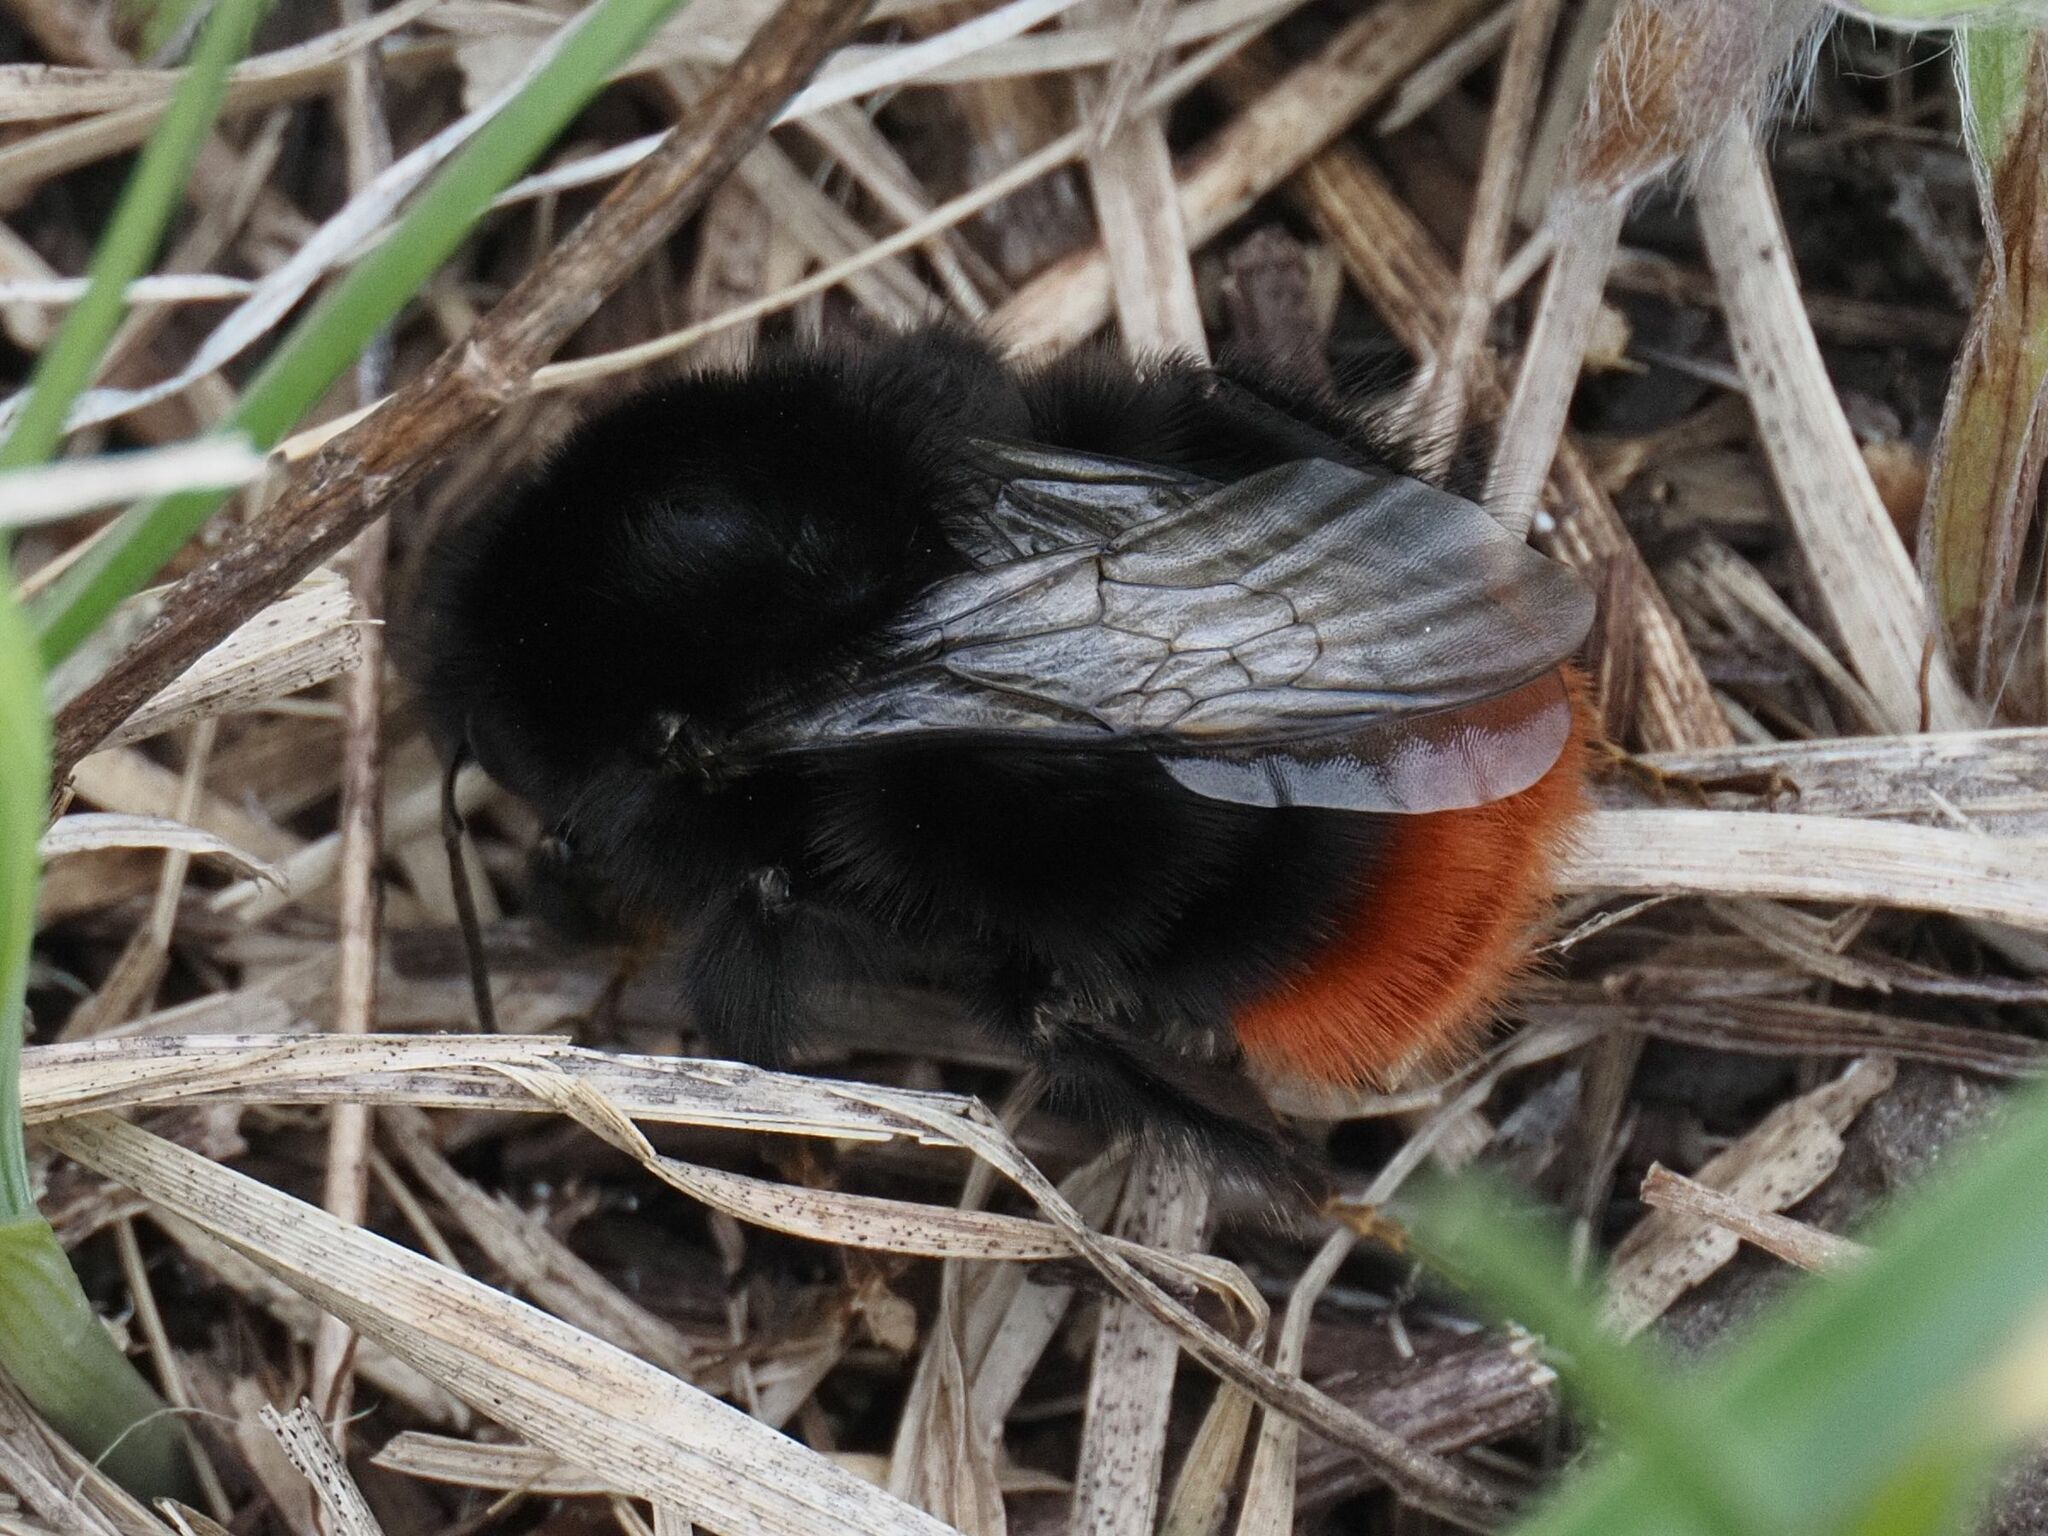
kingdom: Animalia
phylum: Arthropoda
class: Insecta
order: Hymenoptera
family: Apidae
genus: Bombus
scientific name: Bombus lapidarius
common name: Large red-tailed humble-bee
